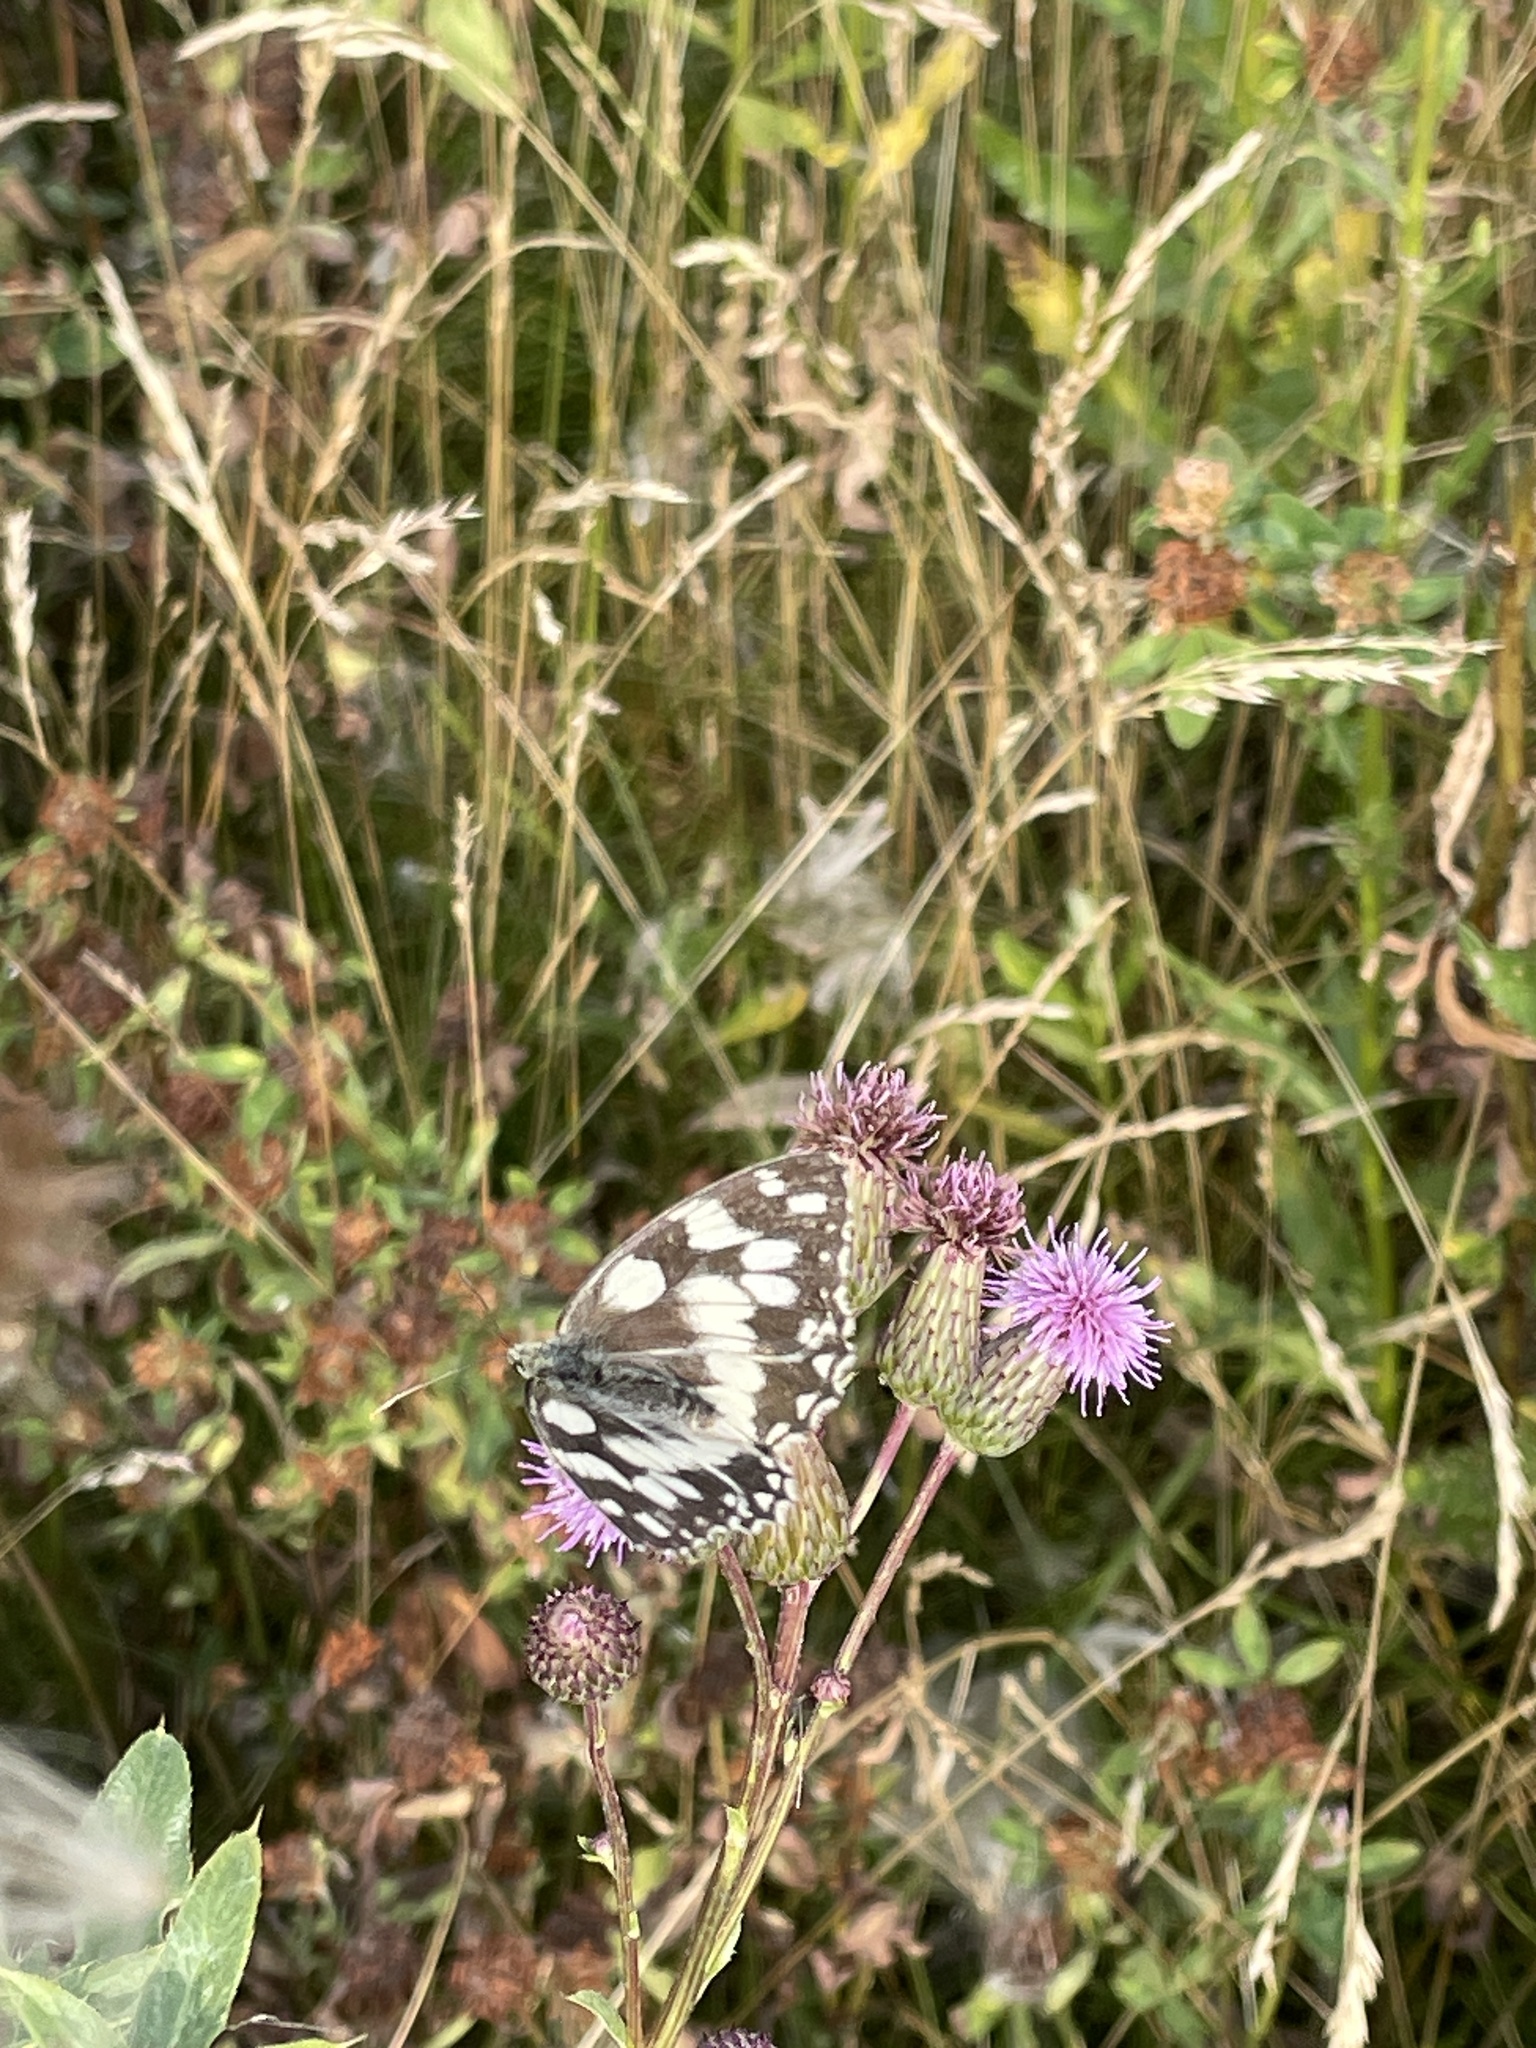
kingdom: Animalia
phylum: Arthropoda
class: Insecta
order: Lepidoptera
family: Nymphalidae
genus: Melanargia
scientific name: Melanargia galathea
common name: Marbled white
